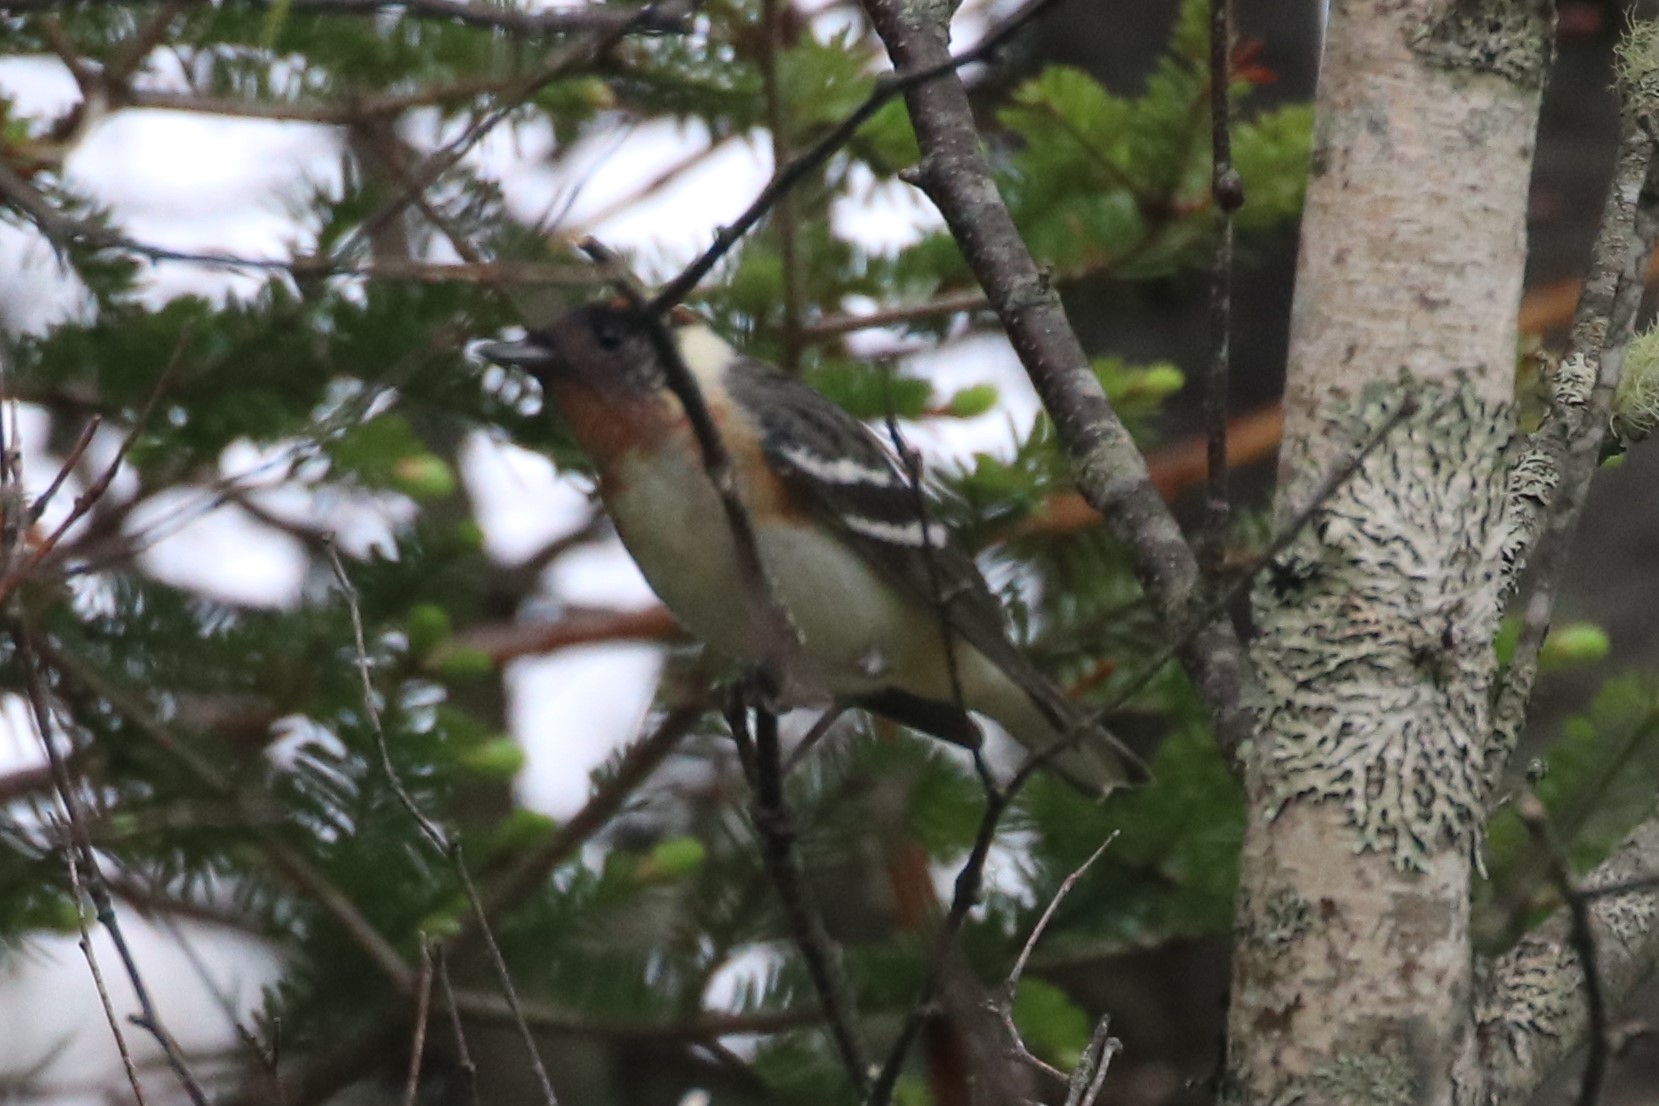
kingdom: Animalia
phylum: Chordata
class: Aves
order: Passeriformes
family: Parulidae
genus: Setophaga
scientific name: Setophaga castanea
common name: Bay-breasted warbler
